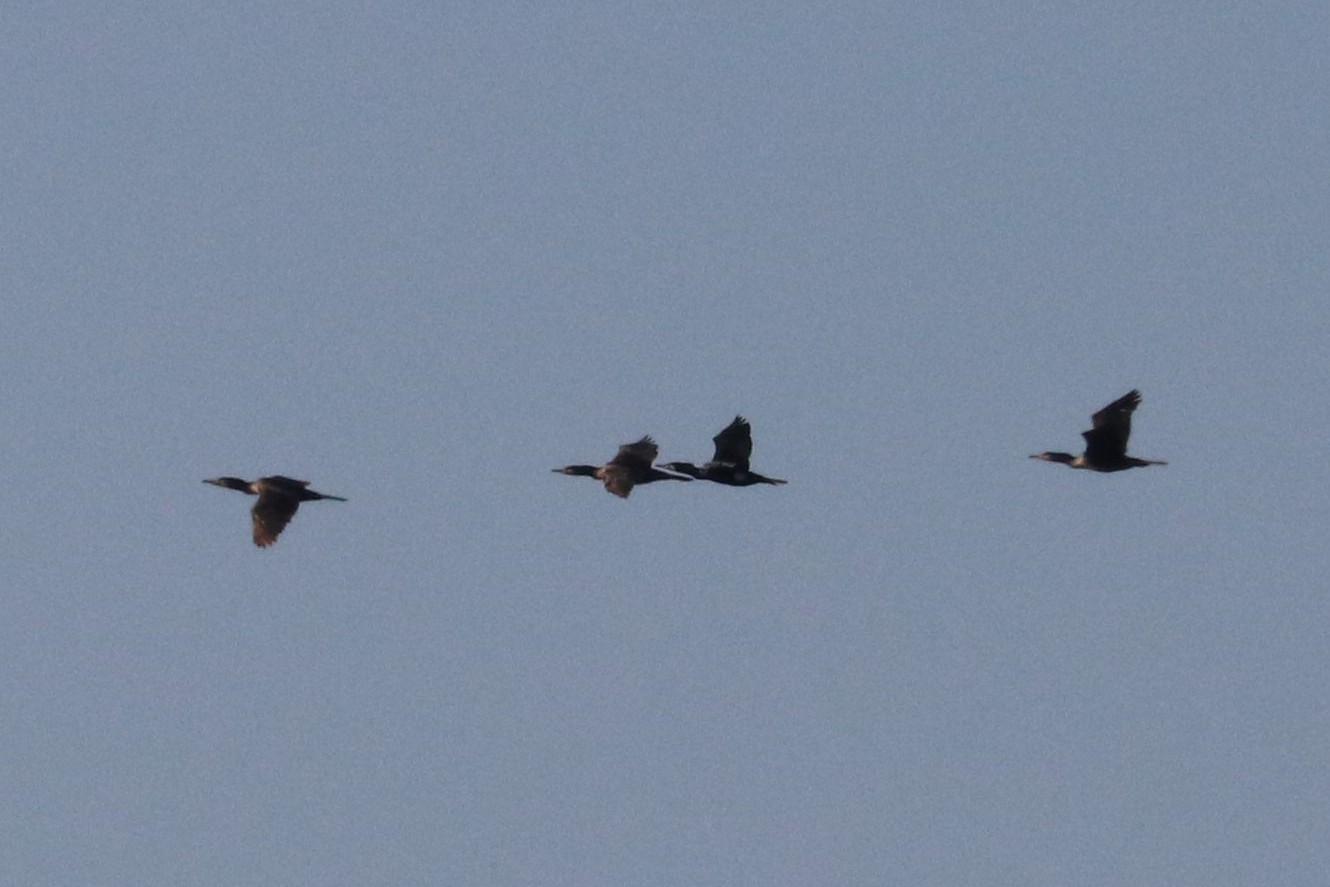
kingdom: Animalia
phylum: Chordata
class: Aves
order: Suliformes
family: Phalacrocoracidae
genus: Phalacrocorax
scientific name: Phalacrocorax carbo
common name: Great cormorant
